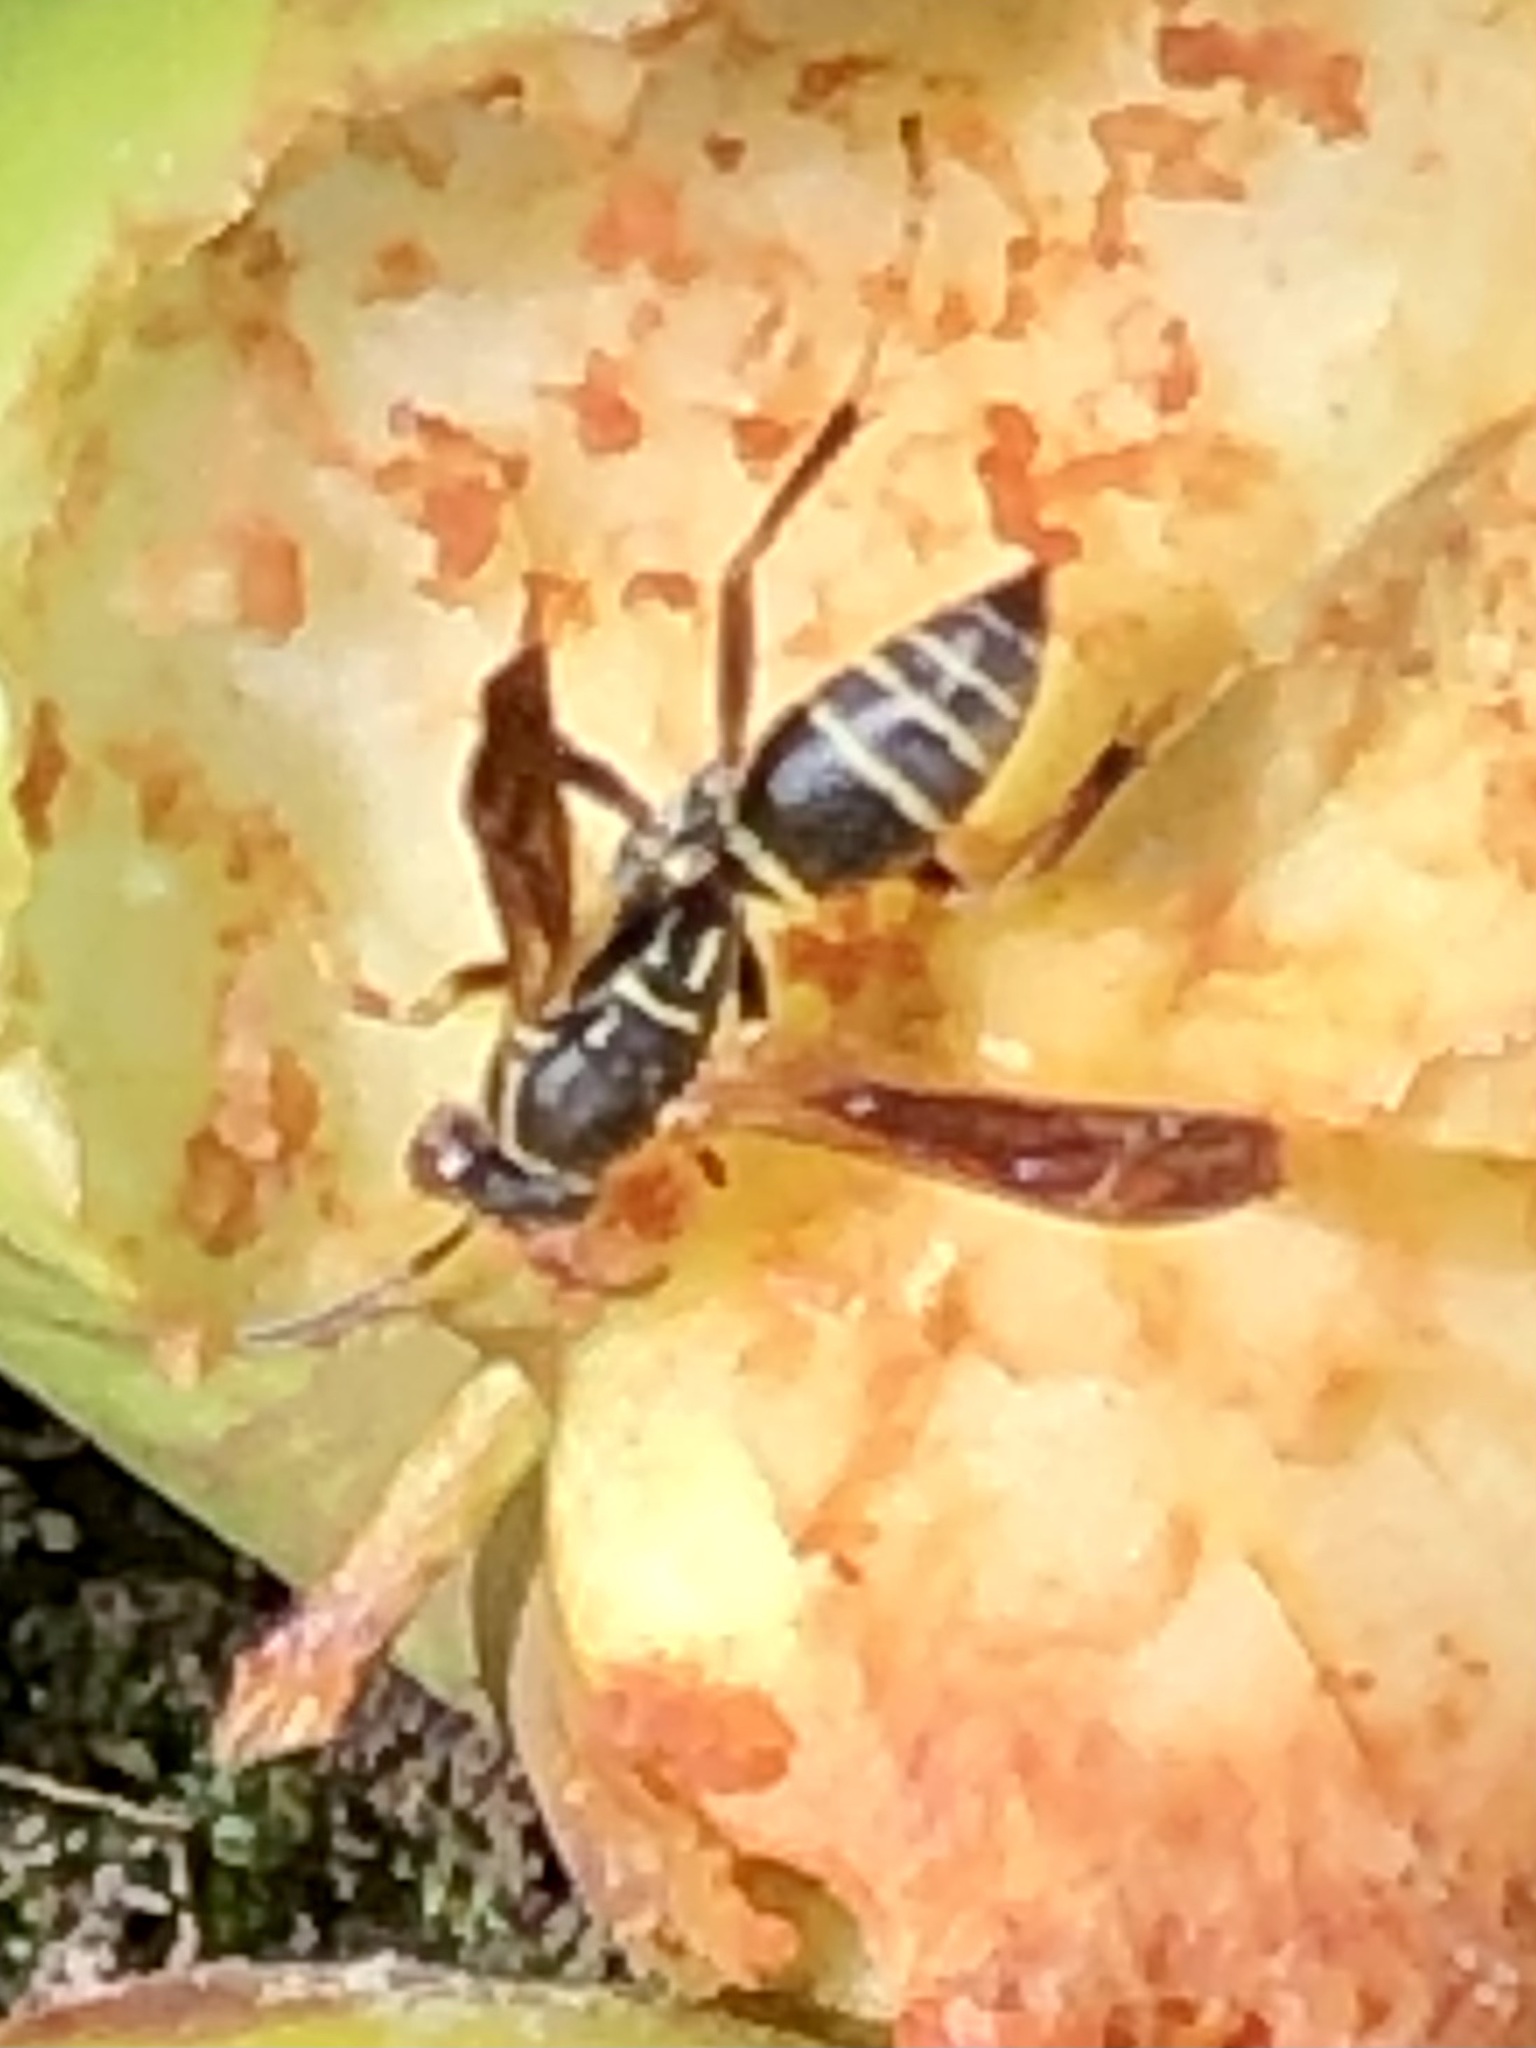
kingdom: Animalia
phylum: Arthropoda
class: Insecta
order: Hymenoptera
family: Eumenidae
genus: Polistes
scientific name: Polistes fuscatus
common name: Dark paper wasp
